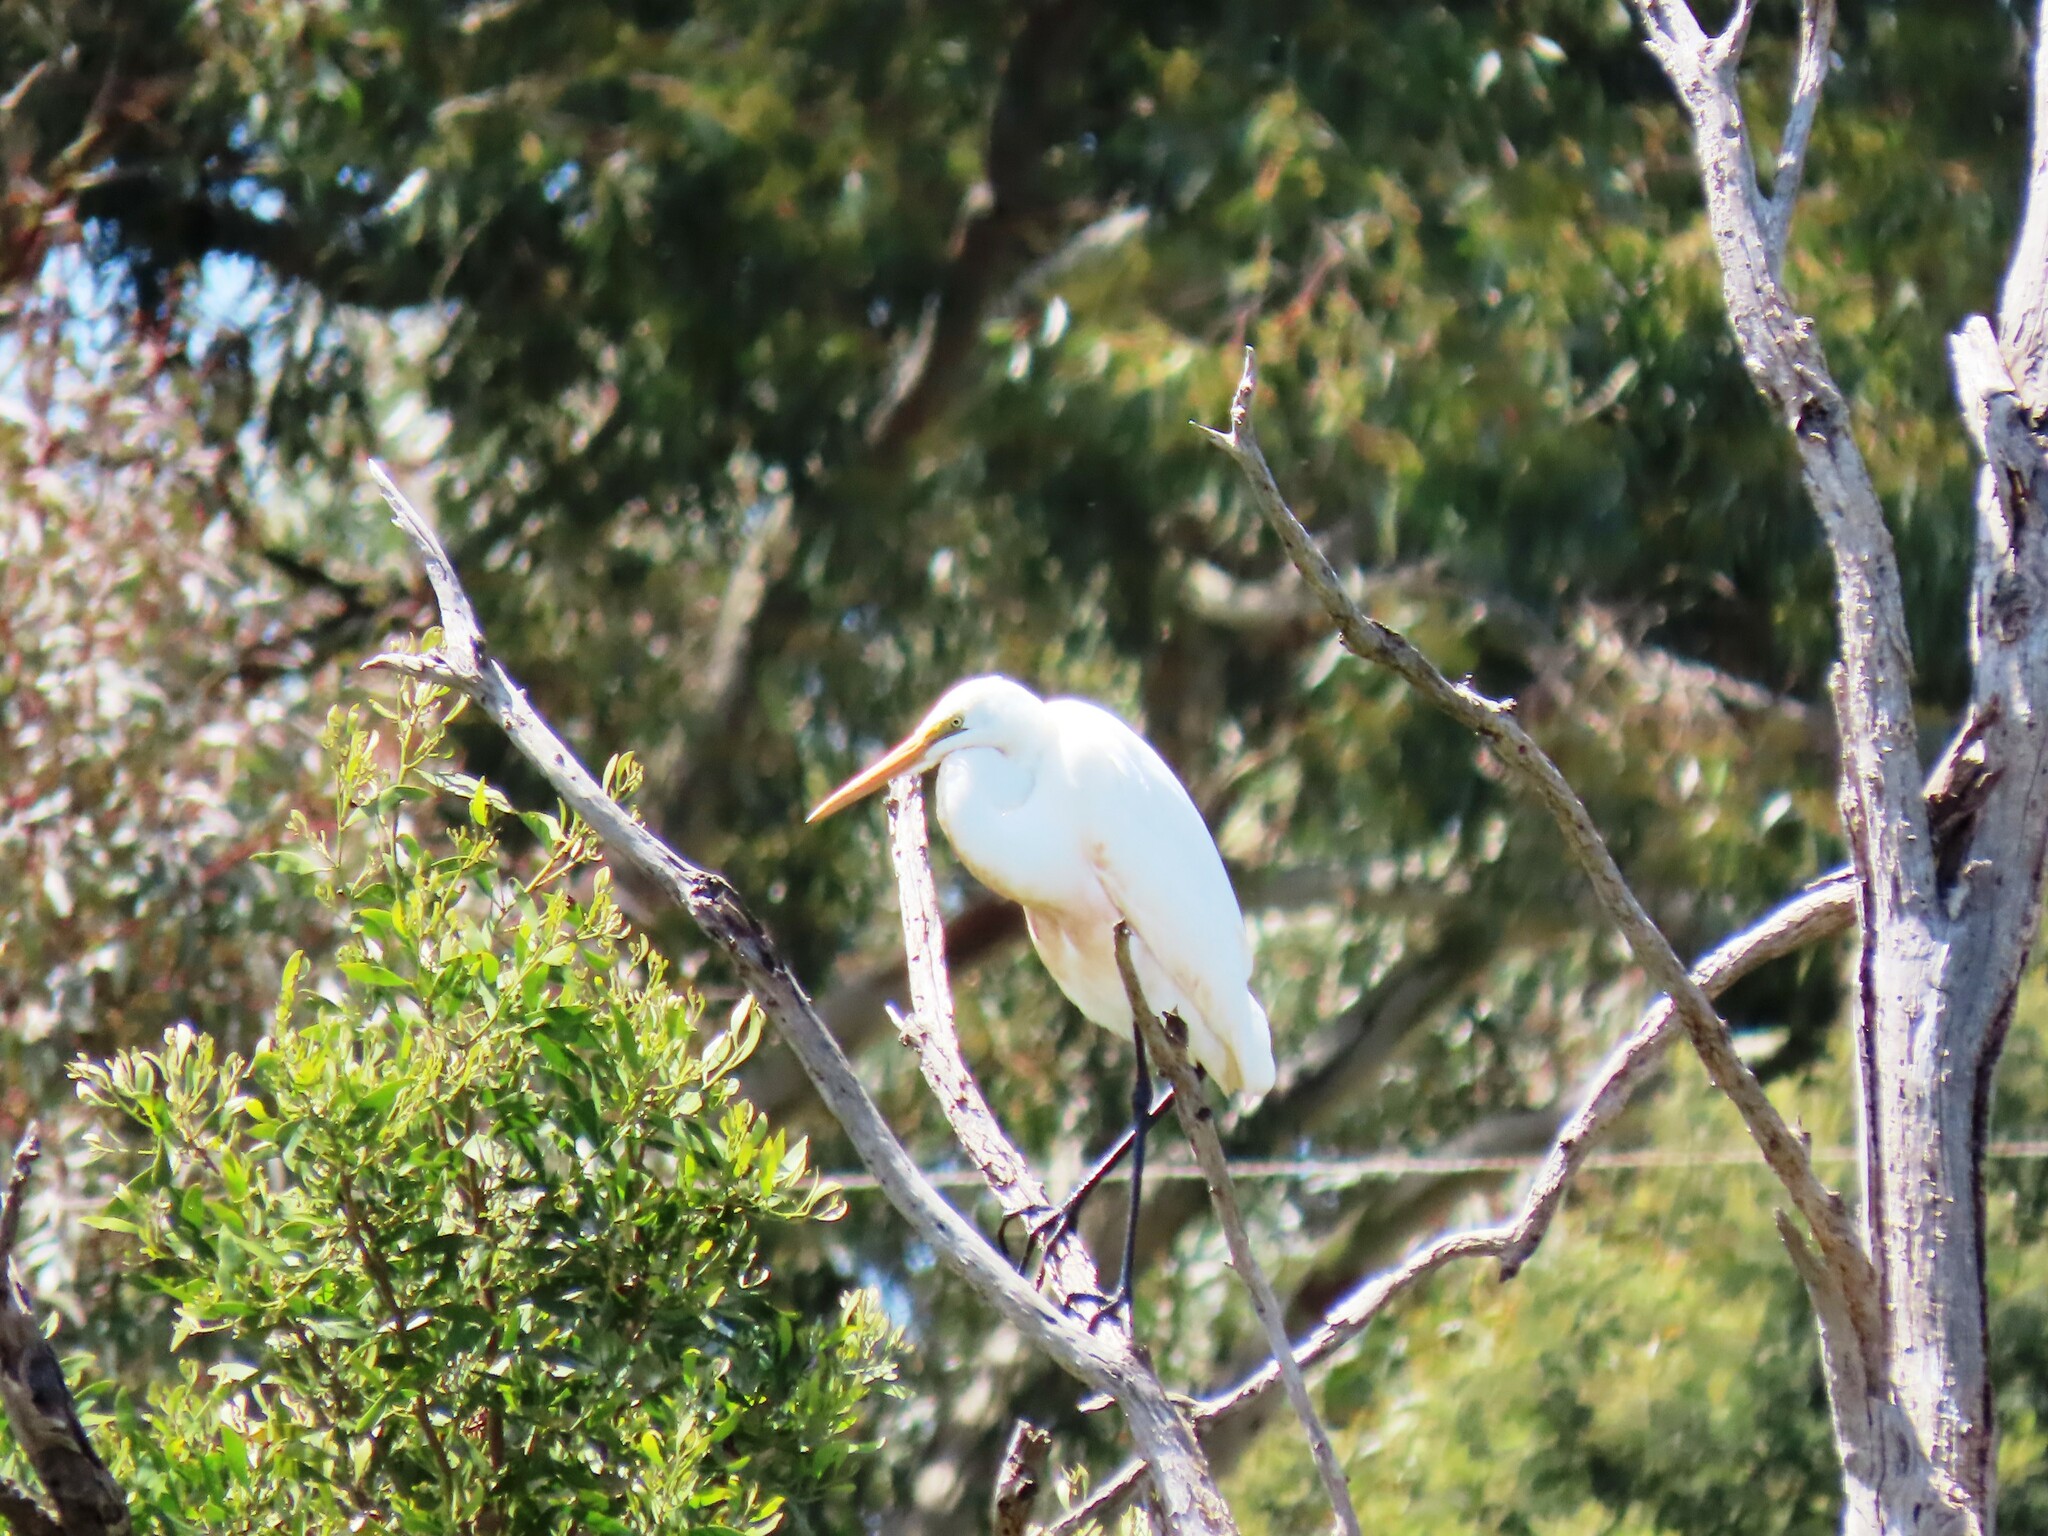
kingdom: Animalia
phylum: Chordata
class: Aves
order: Pelecaniformes
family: Ardeidae
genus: Ardea
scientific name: Ardea alba
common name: Great egret
